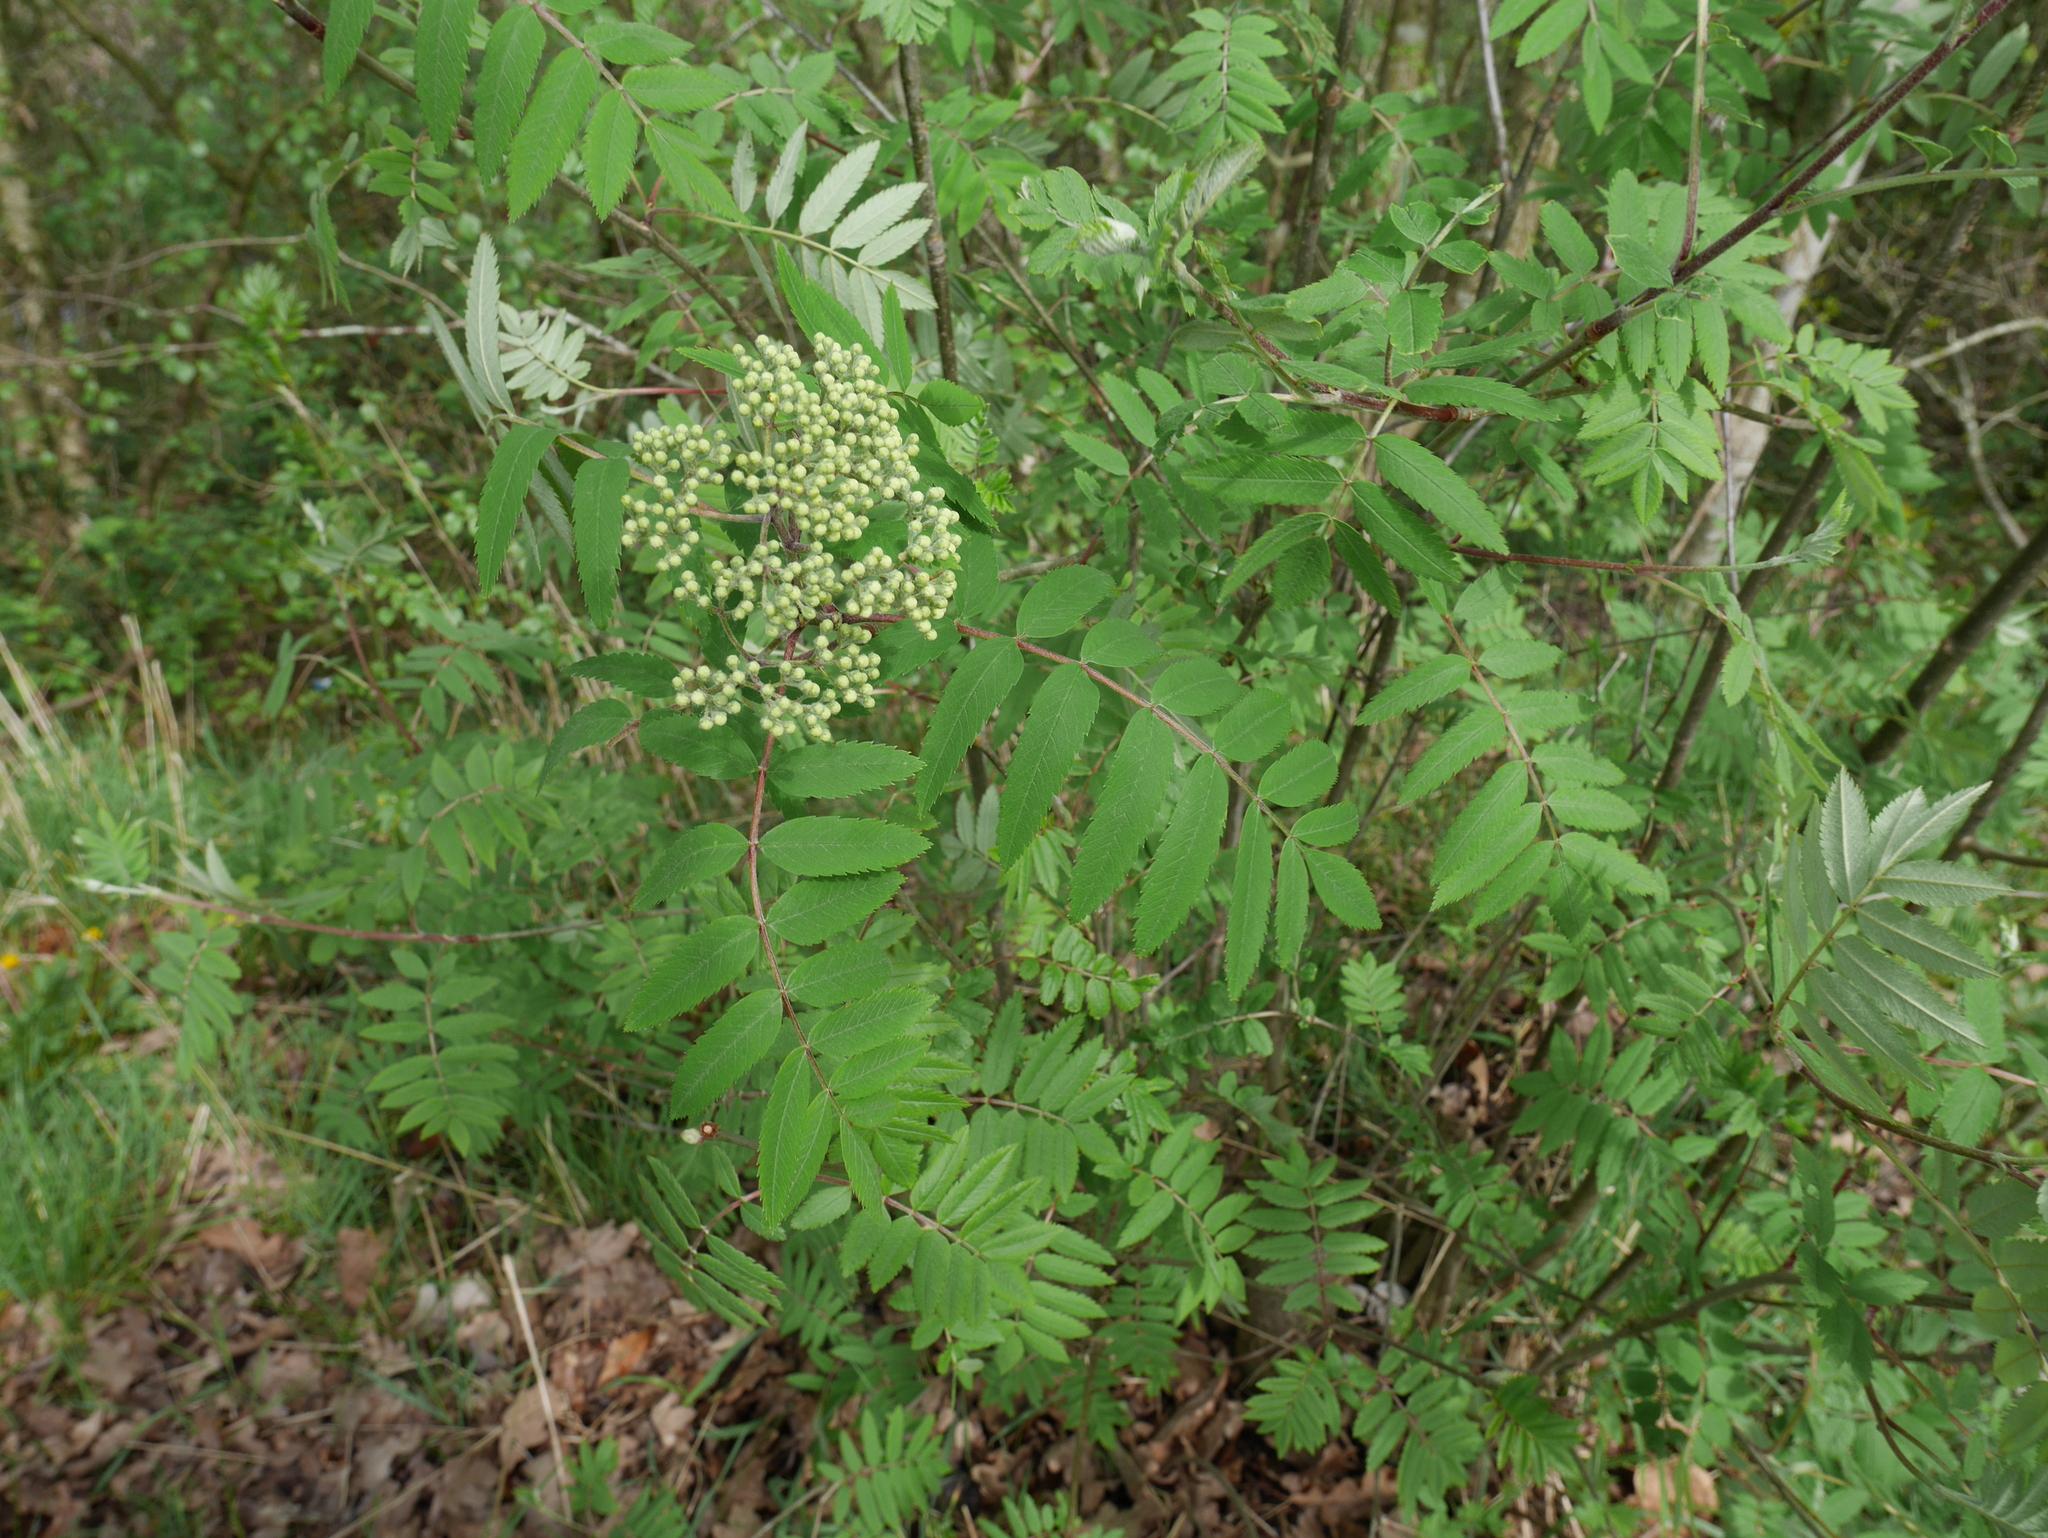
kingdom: Plantae
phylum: Tracheophyta
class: Magnoliopsida
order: Rosales
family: Rosaceae
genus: Sorbus
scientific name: Sorbus aucuparia
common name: Rowan
